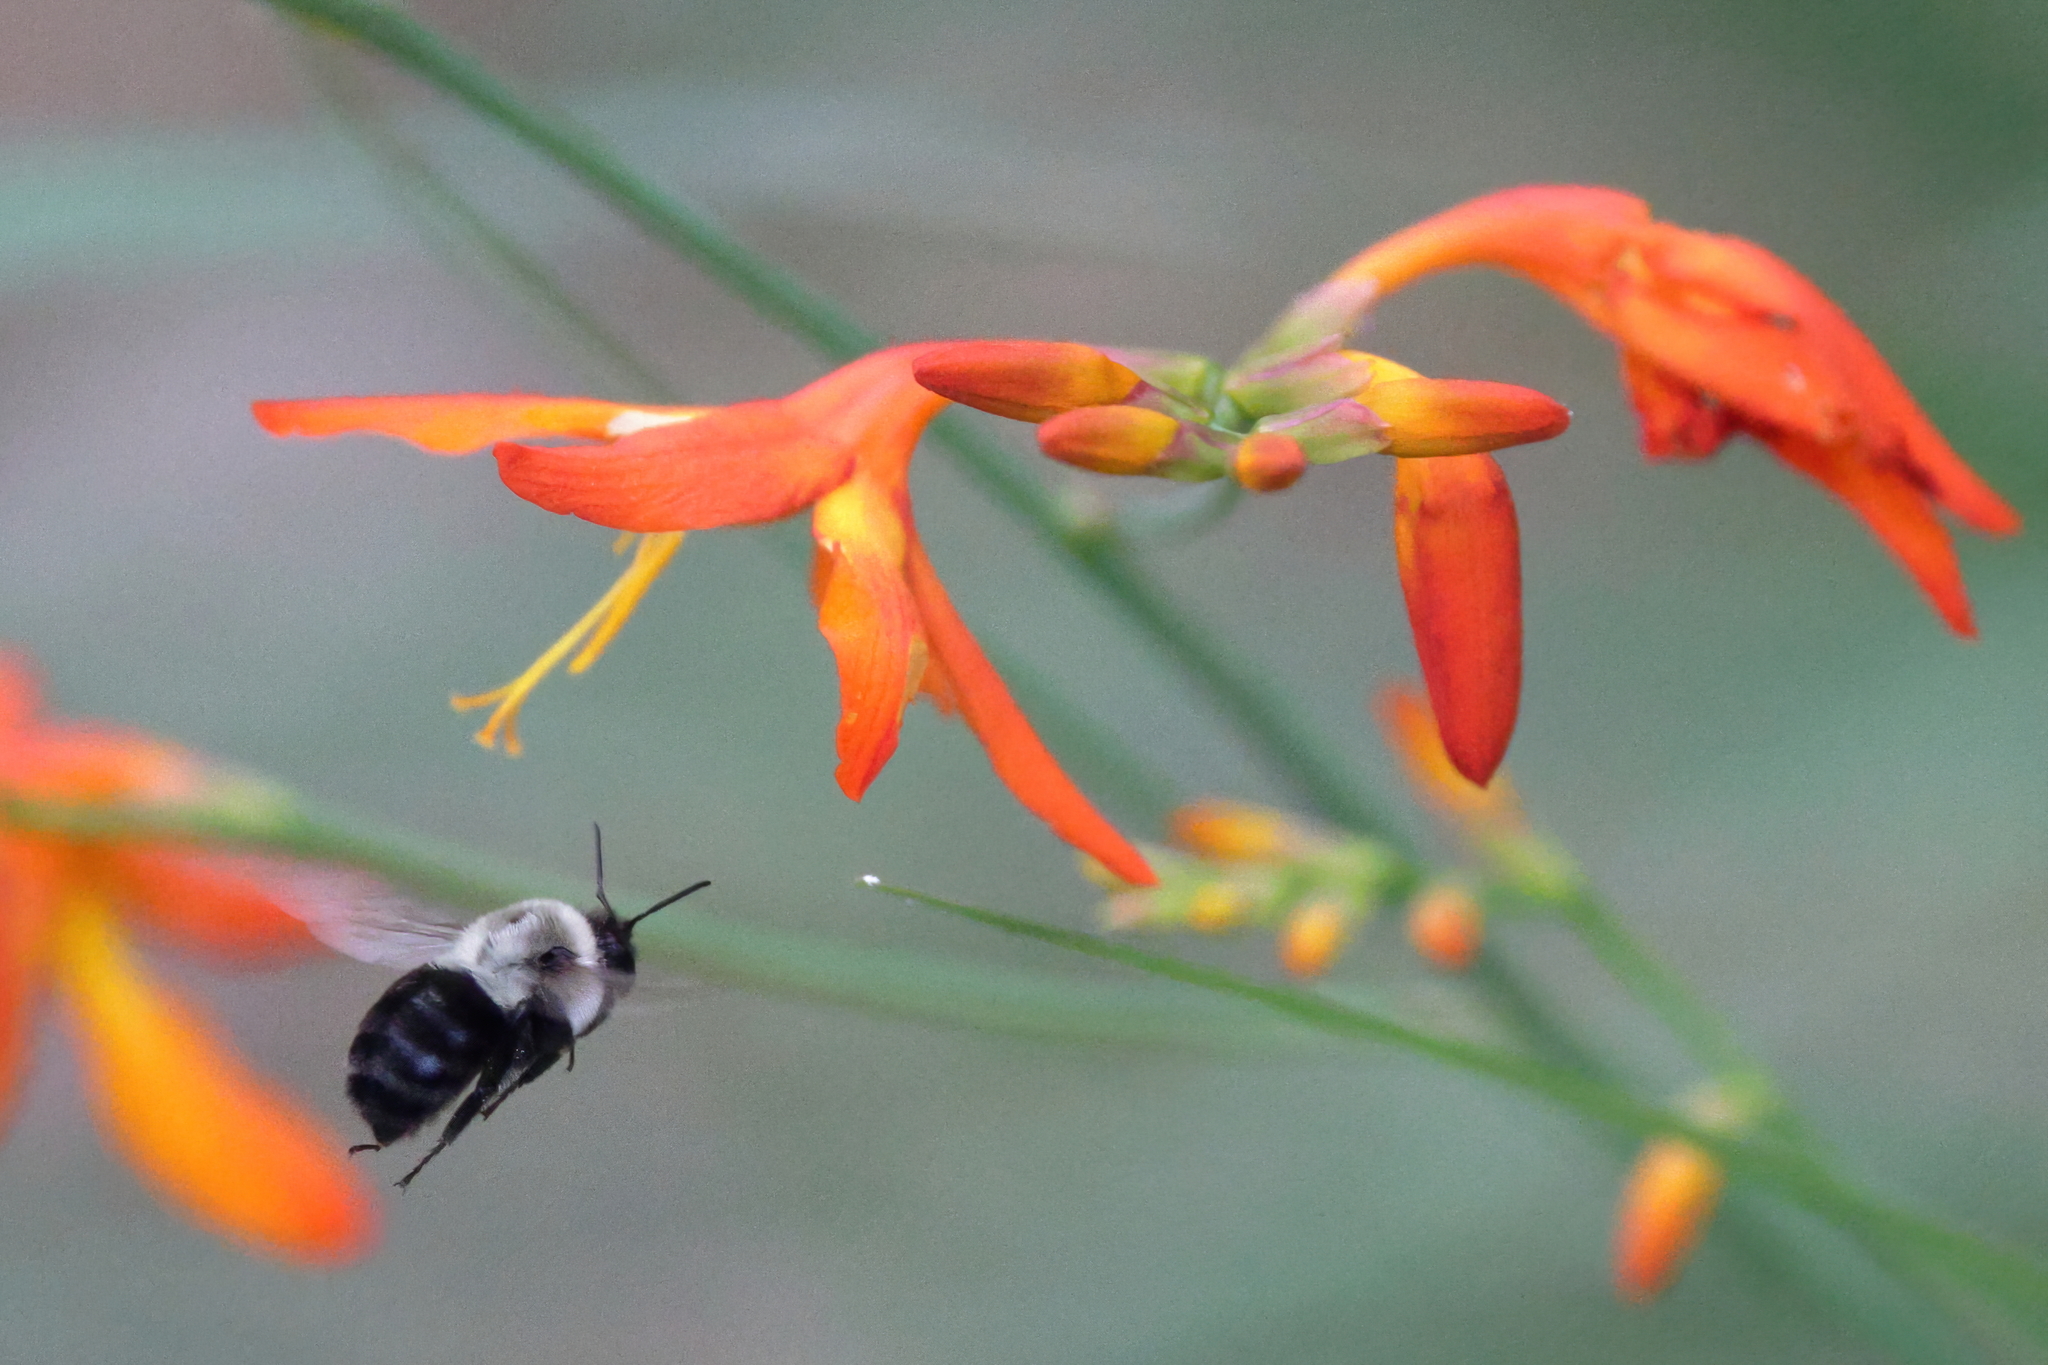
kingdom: Animalia
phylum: Arthropoda
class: Insecta
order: Hymenoptera
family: Apidae
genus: Bombus
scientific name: Bombus impatiens
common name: Common eastern bumble bee
